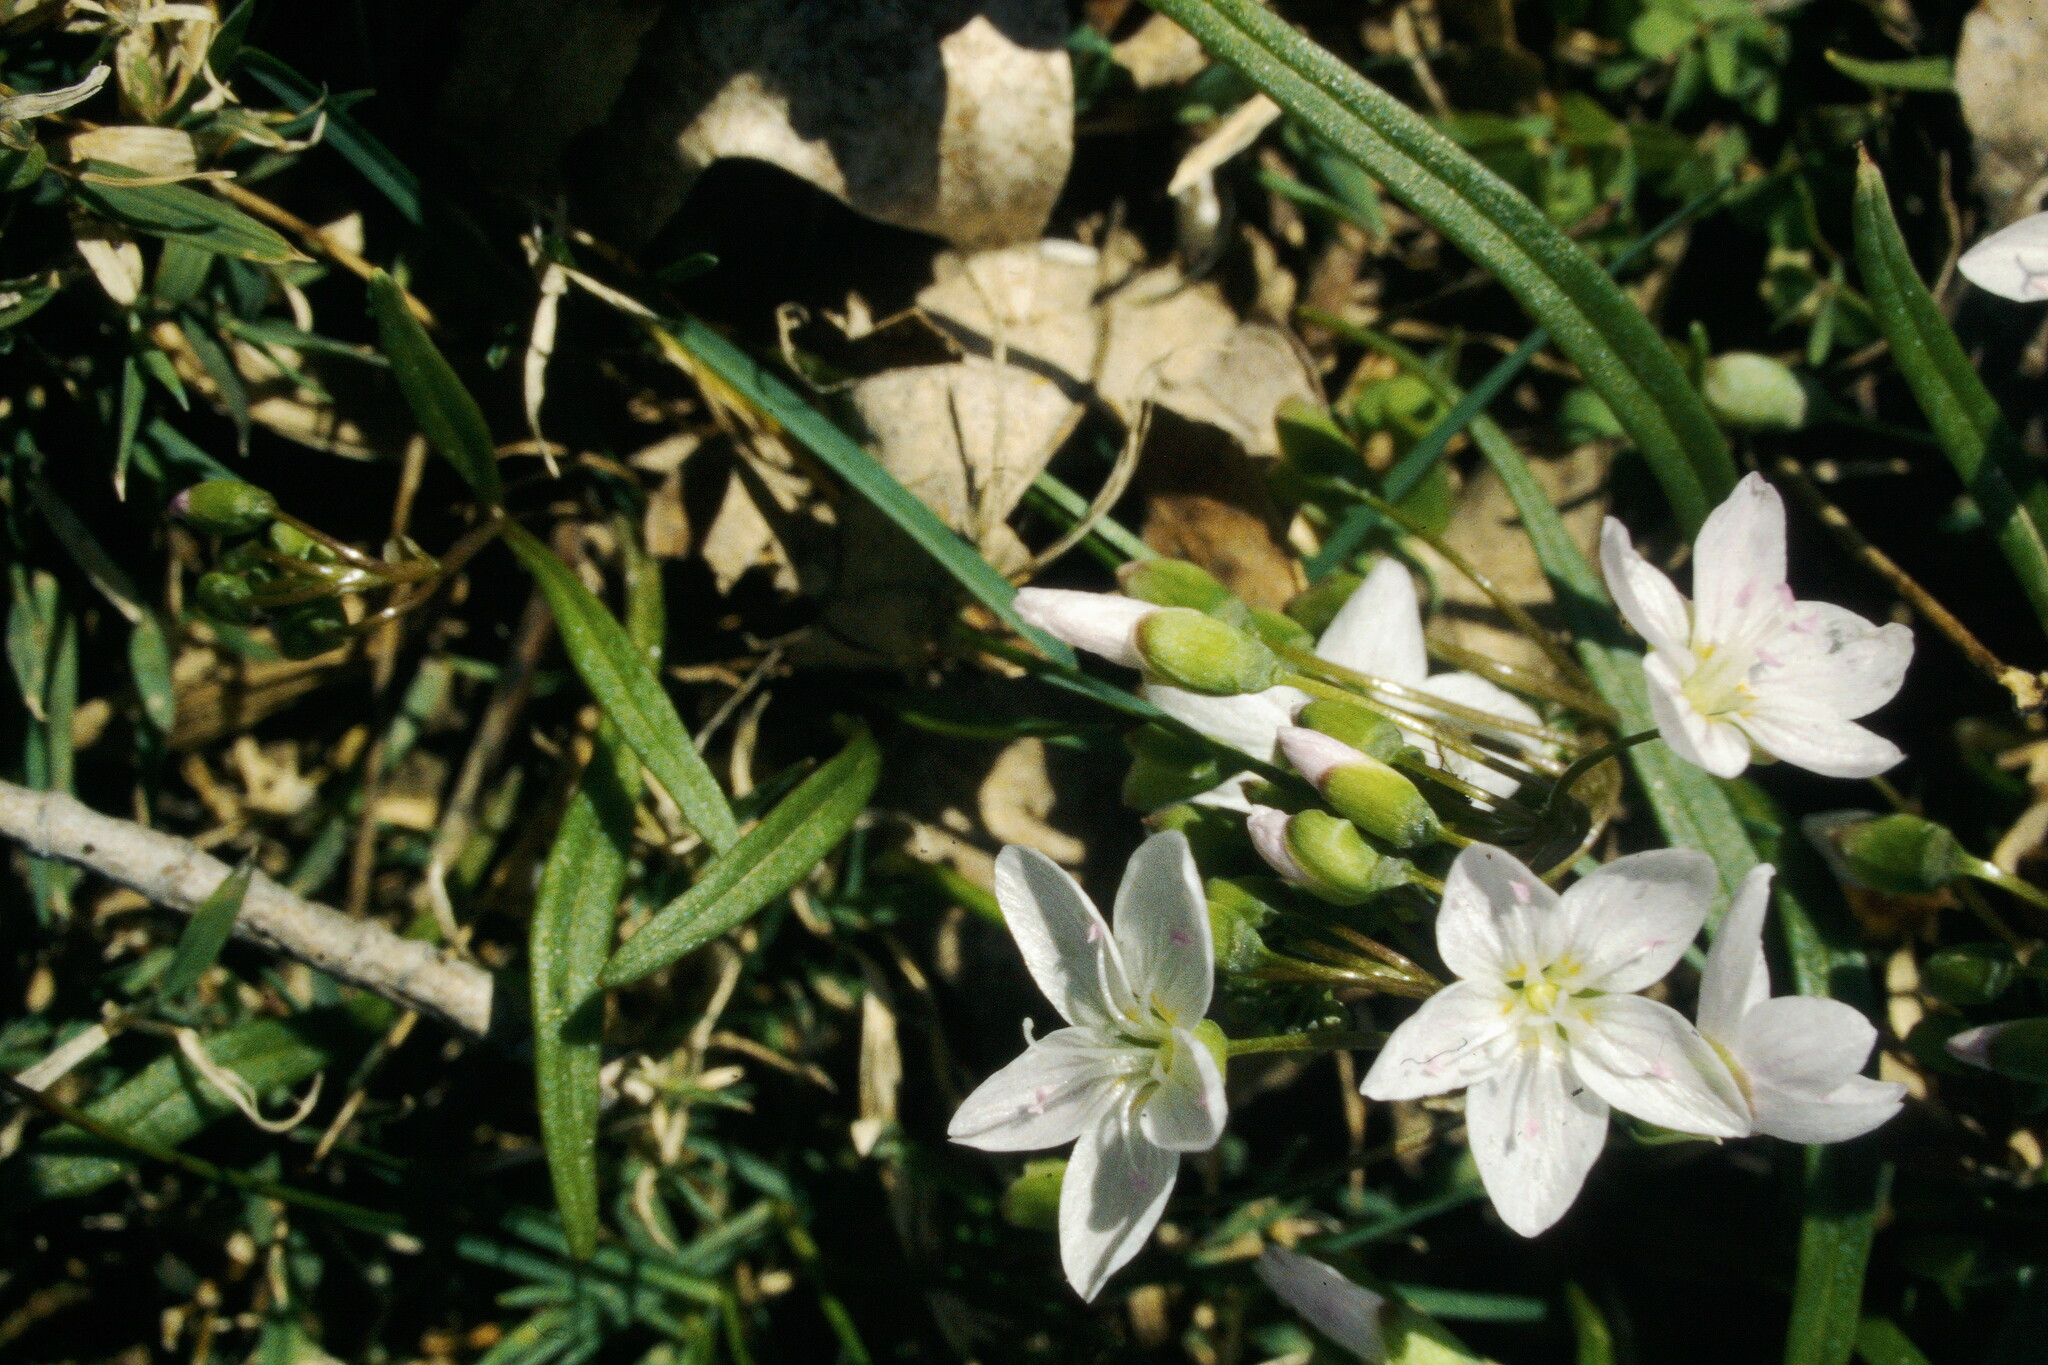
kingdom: Plantae
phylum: Tracheophyta
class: Magnoliopsida
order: Caryophyllales
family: Montiaceae
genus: Claytonia
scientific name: Claytonia virginica
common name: Virginia springbeauty
